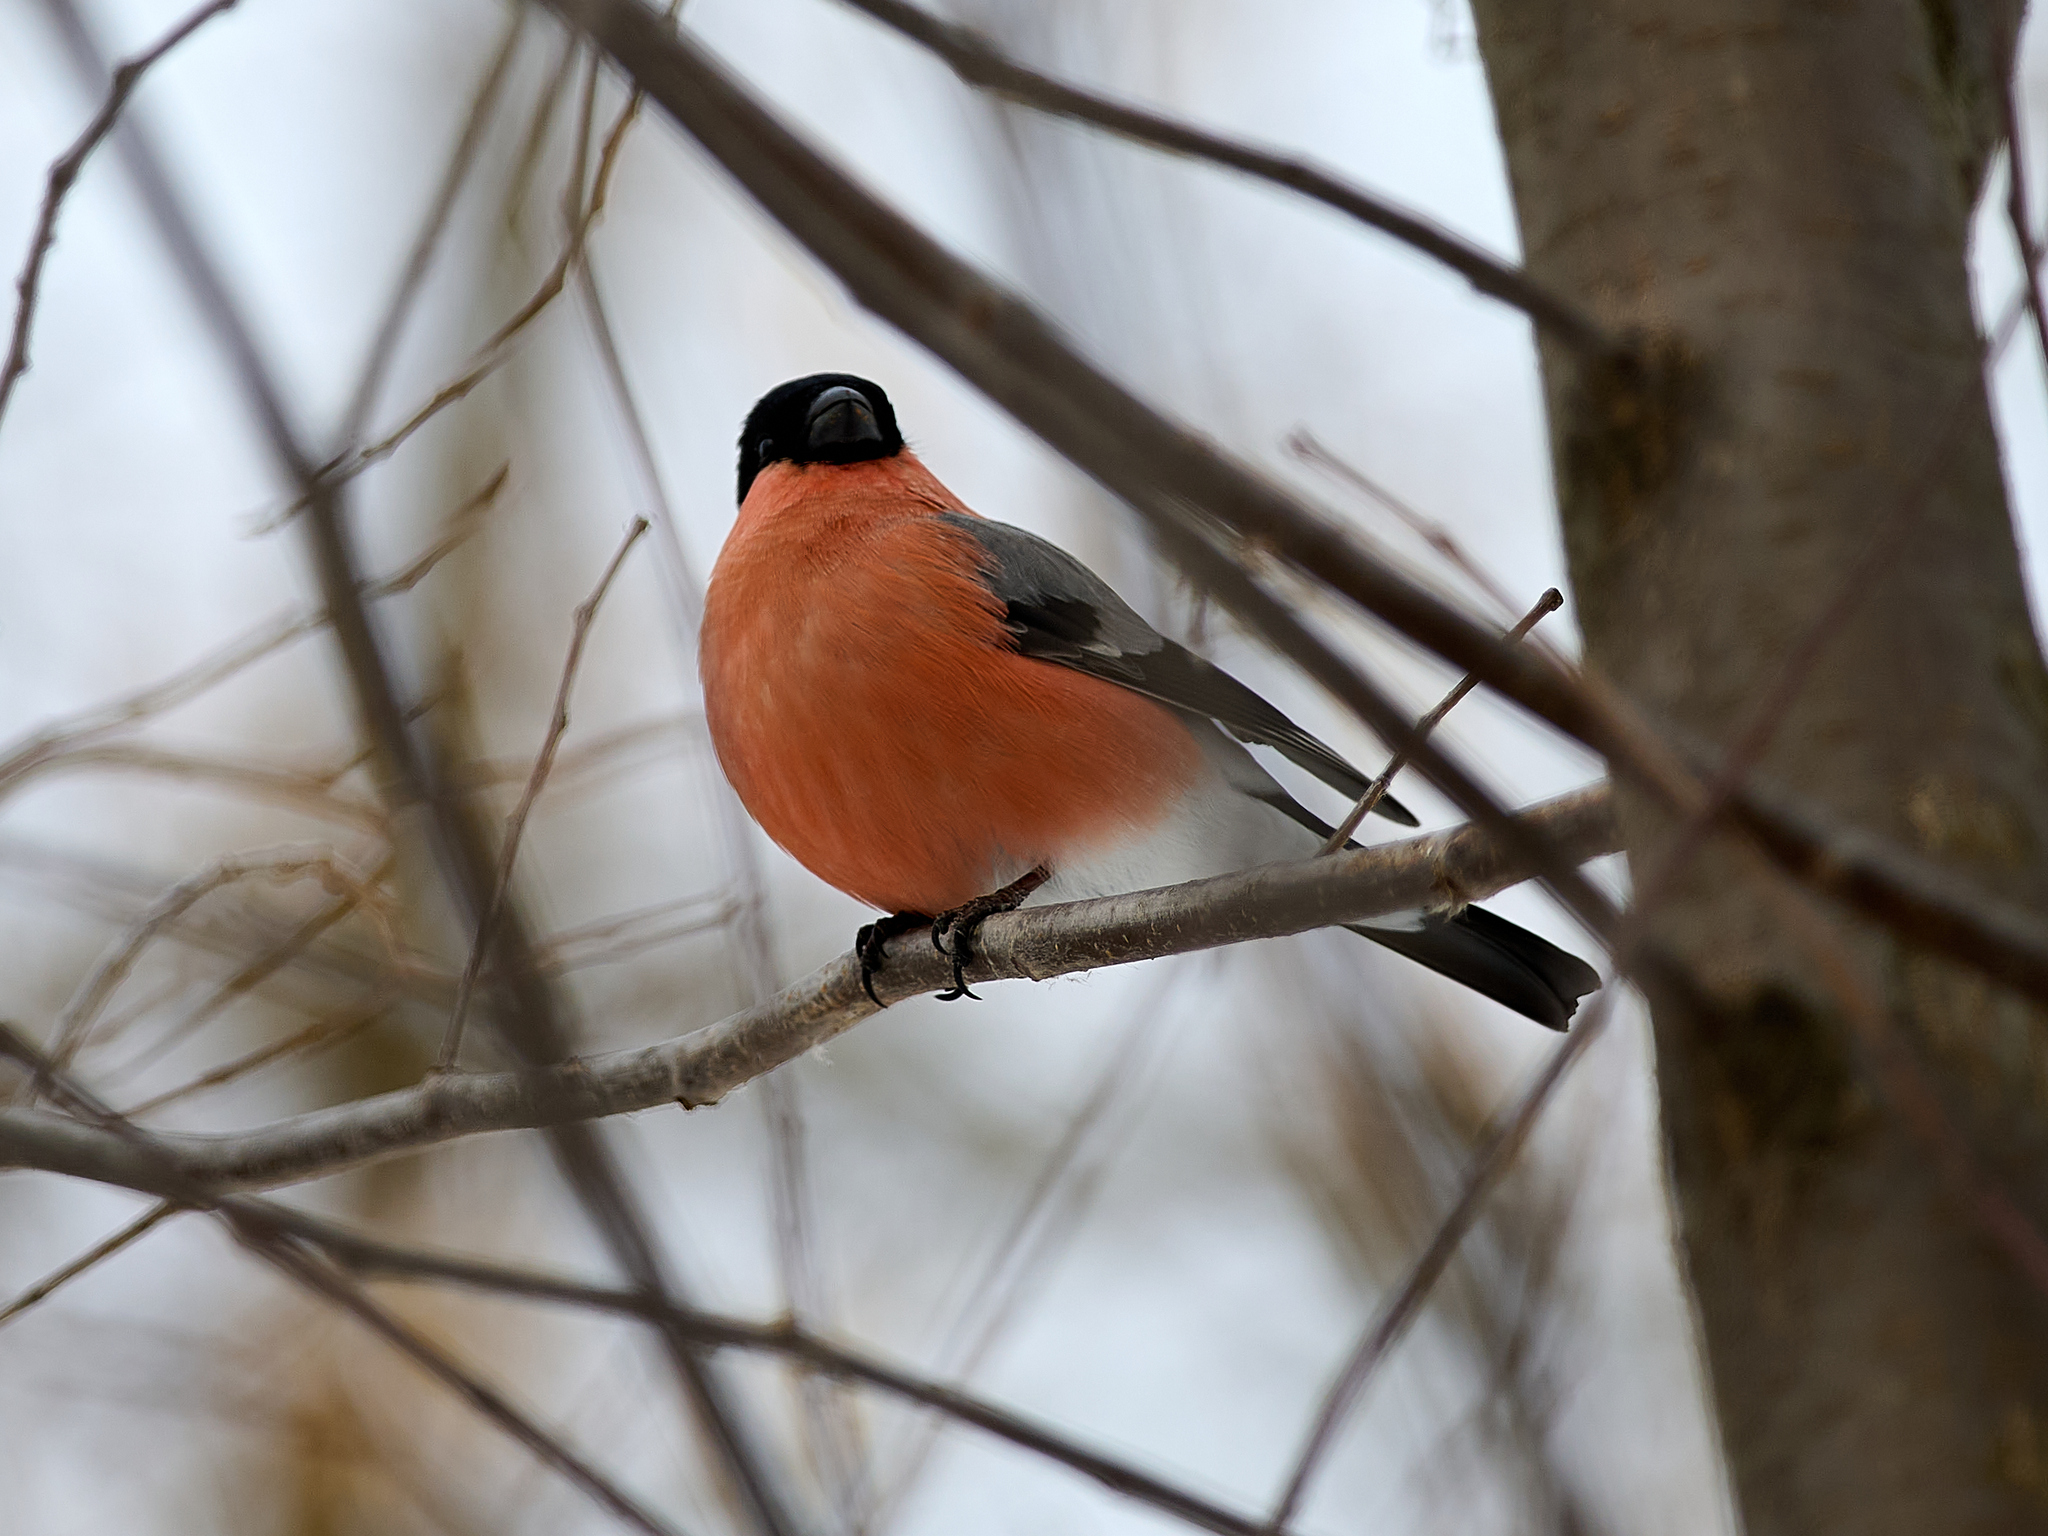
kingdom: Animalia
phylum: Chordata
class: Aves
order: Passeriformes
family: Fringillidae
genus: Pyrrhula
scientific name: Pyrrhula pyrrhula
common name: Eurasian bullfinch
